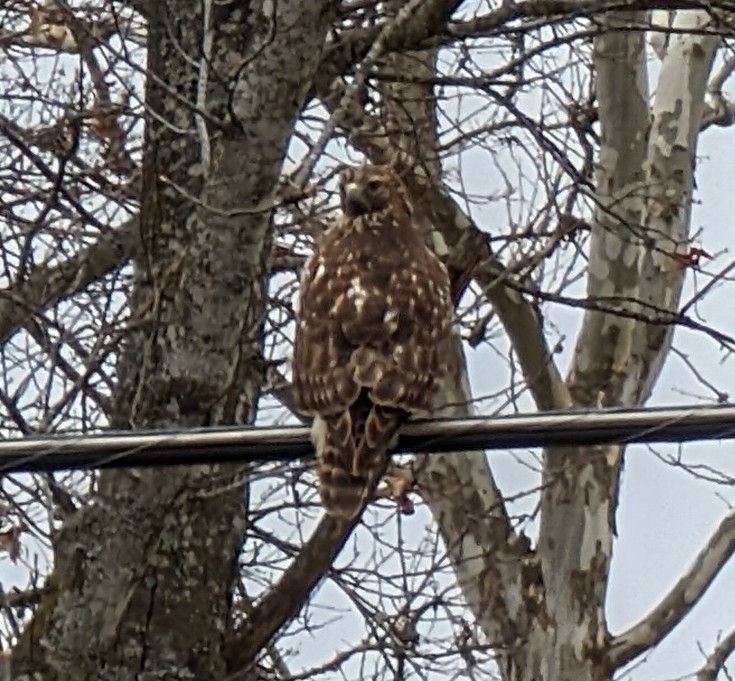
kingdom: Animalia
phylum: Chordata
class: Aves
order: Accipitriformes
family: Accipitridae
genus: Buteo
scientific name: Buteo lineatus
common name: Red-shouldered hawk
